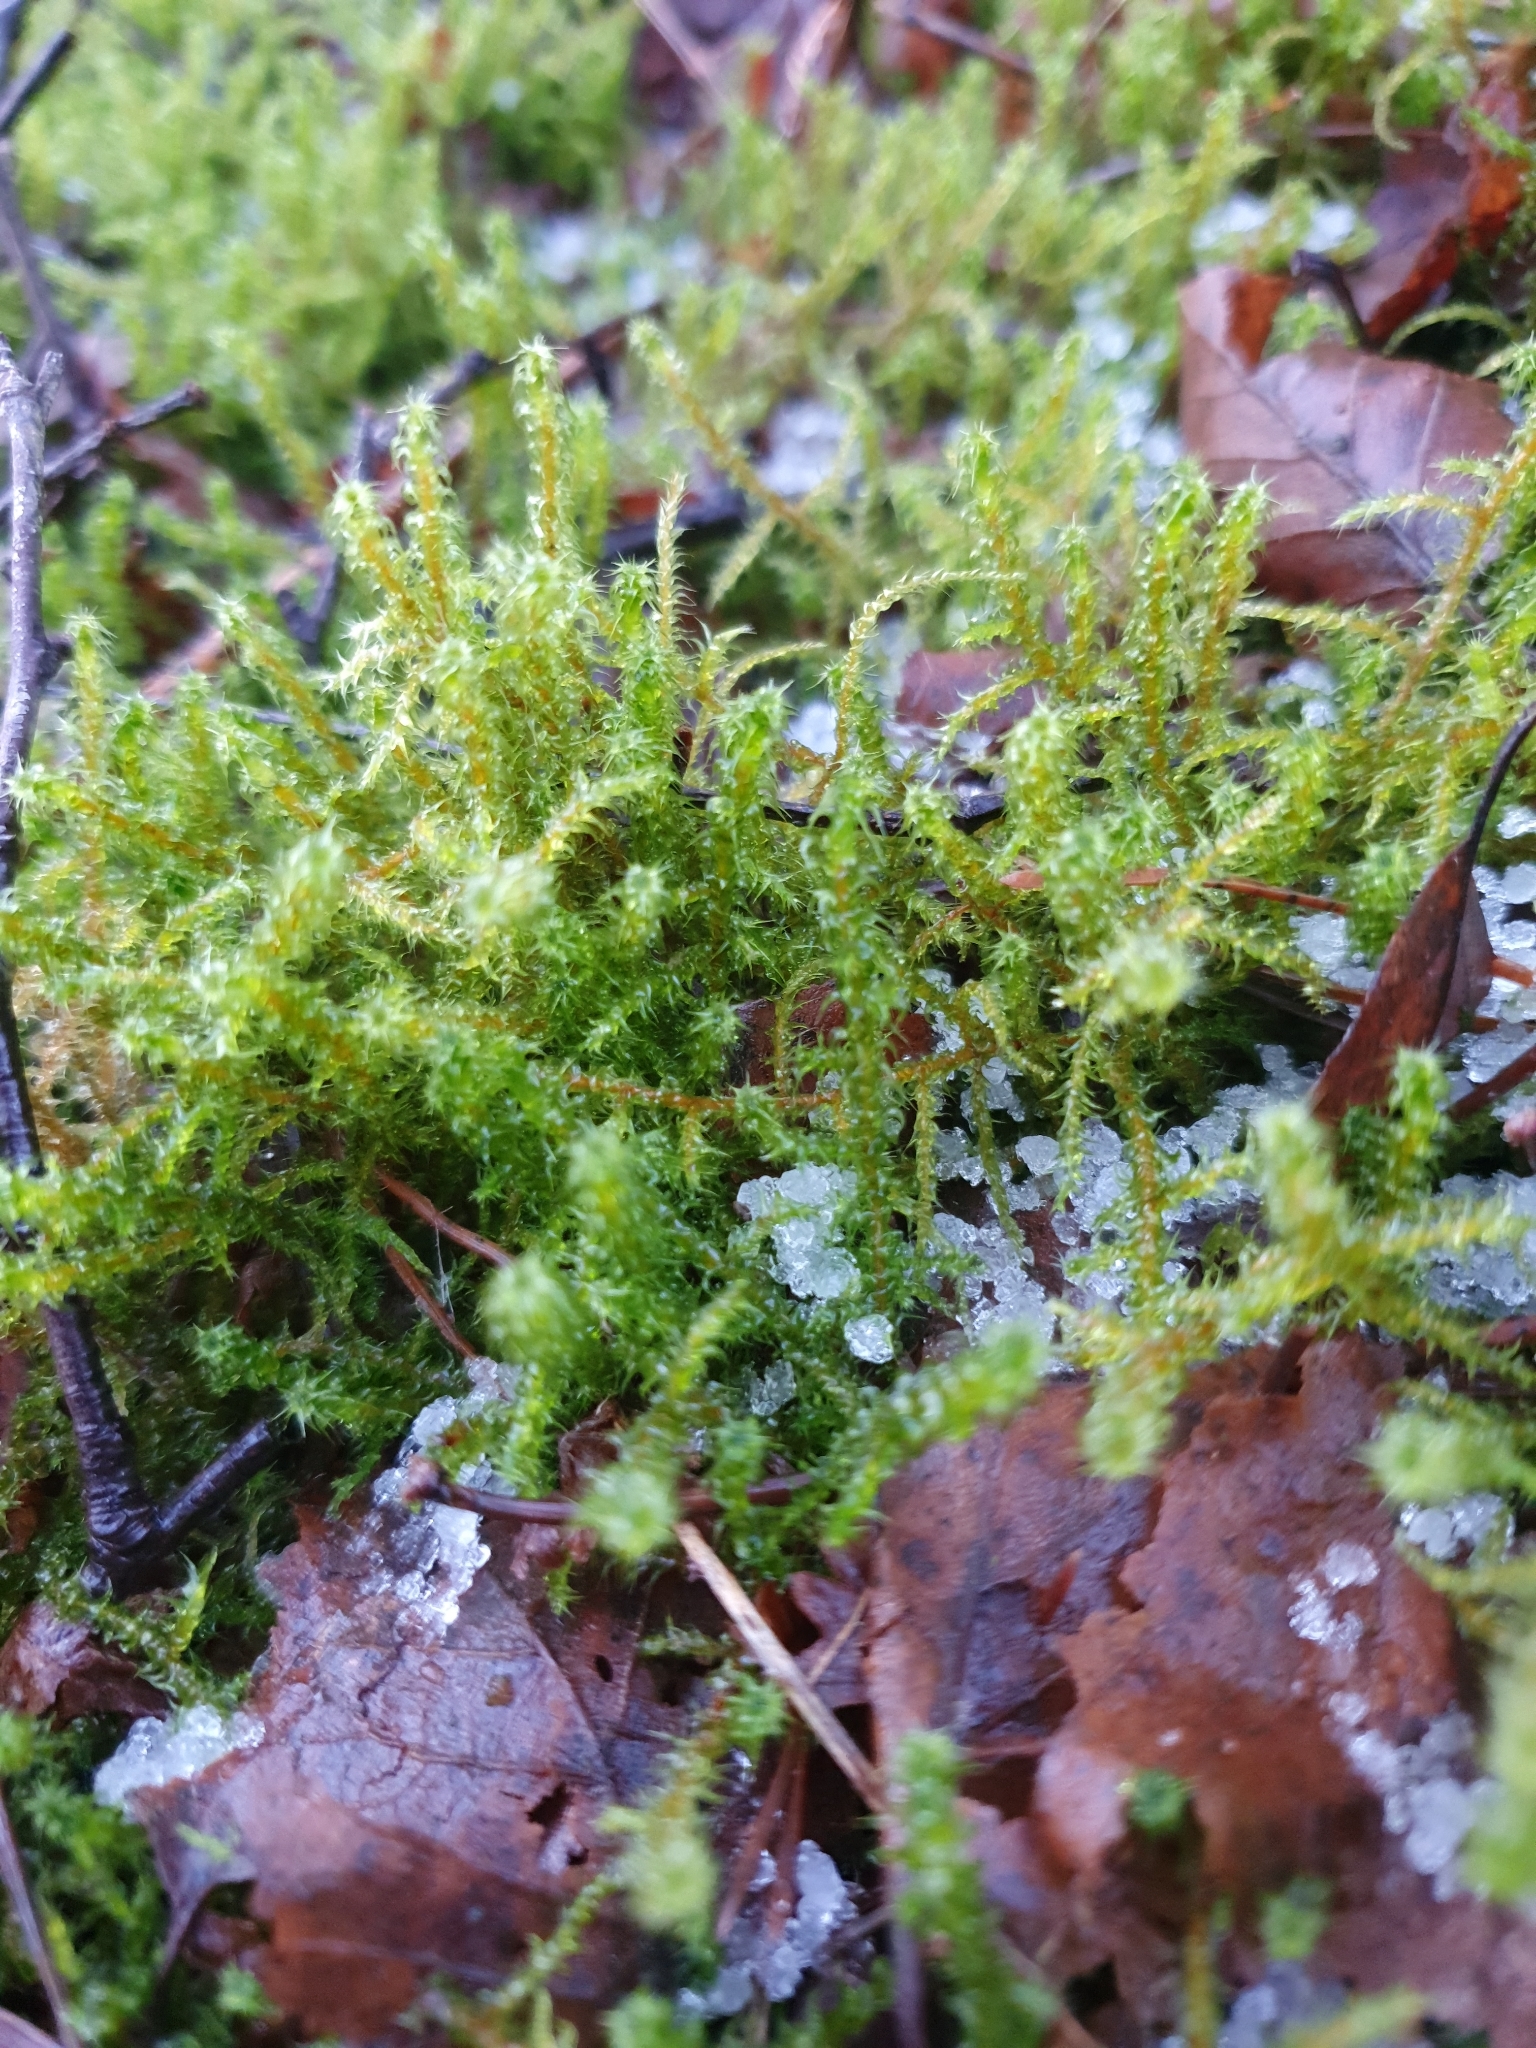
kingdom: Plantae
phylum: Bryophyta
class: Bryopsida
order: Hypnales
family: Hylocomiaceae
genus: Rhytidiadelphus
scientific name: Rhytidiadelphus squarrosus
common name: Springy turf-moss
